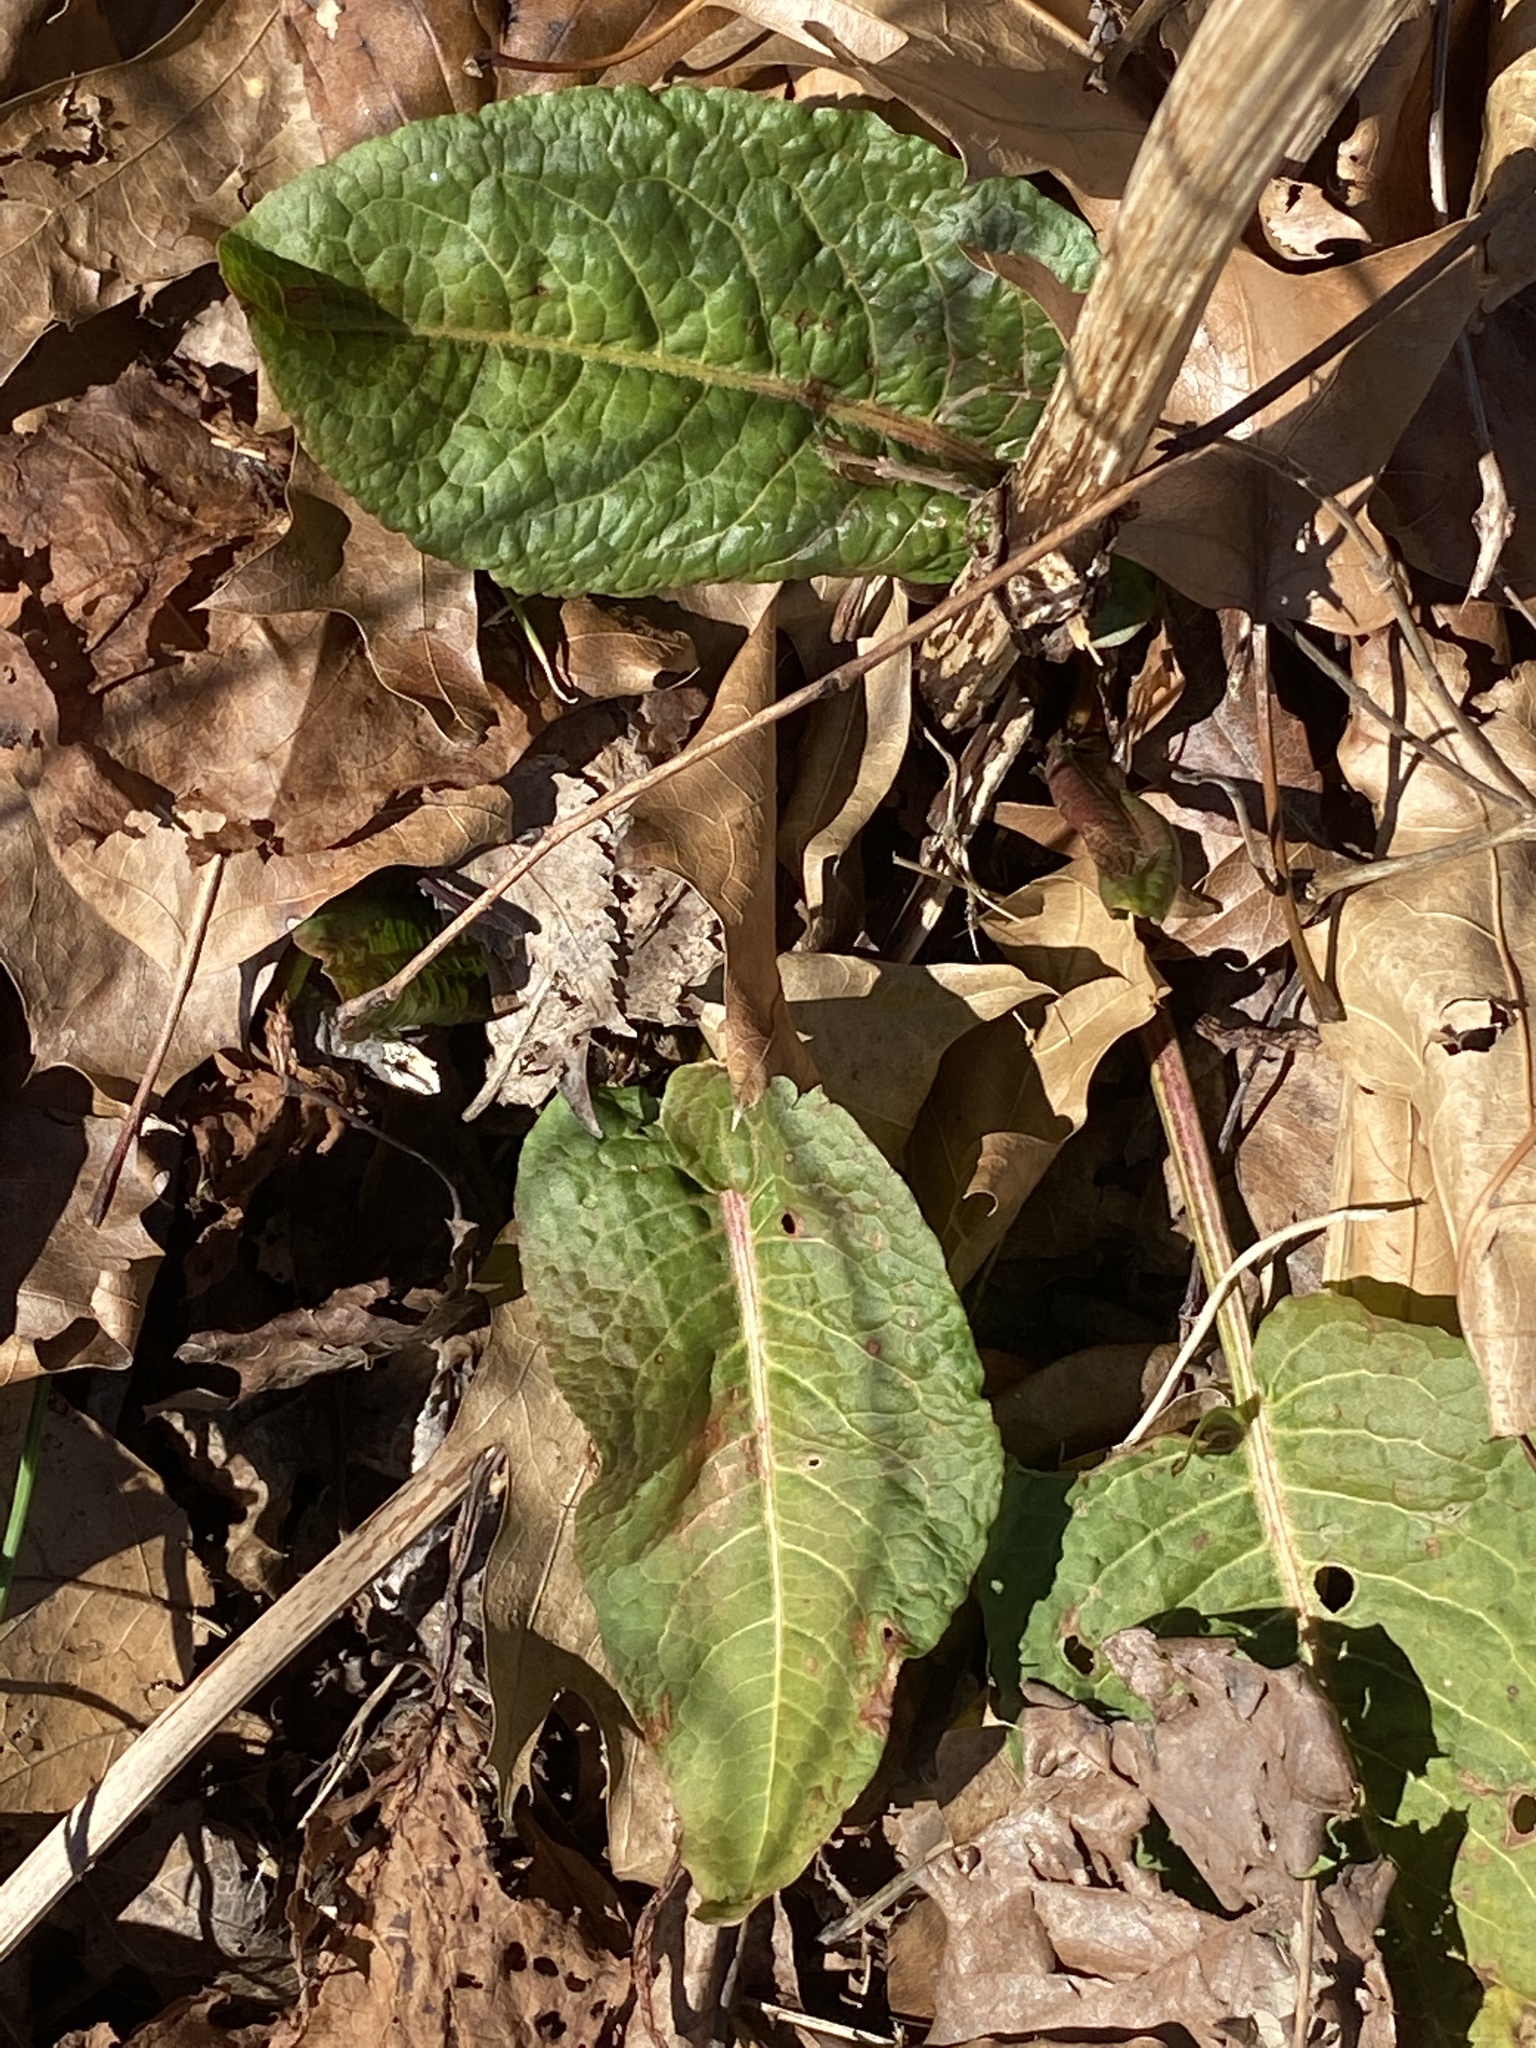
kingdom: Plantae
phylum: Tracheophyta
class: Magnoliopsida
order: Caryophyllales
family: Polygonaceae
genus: Rumex
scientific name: Rumex obtusifolius
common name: Bitter dock
